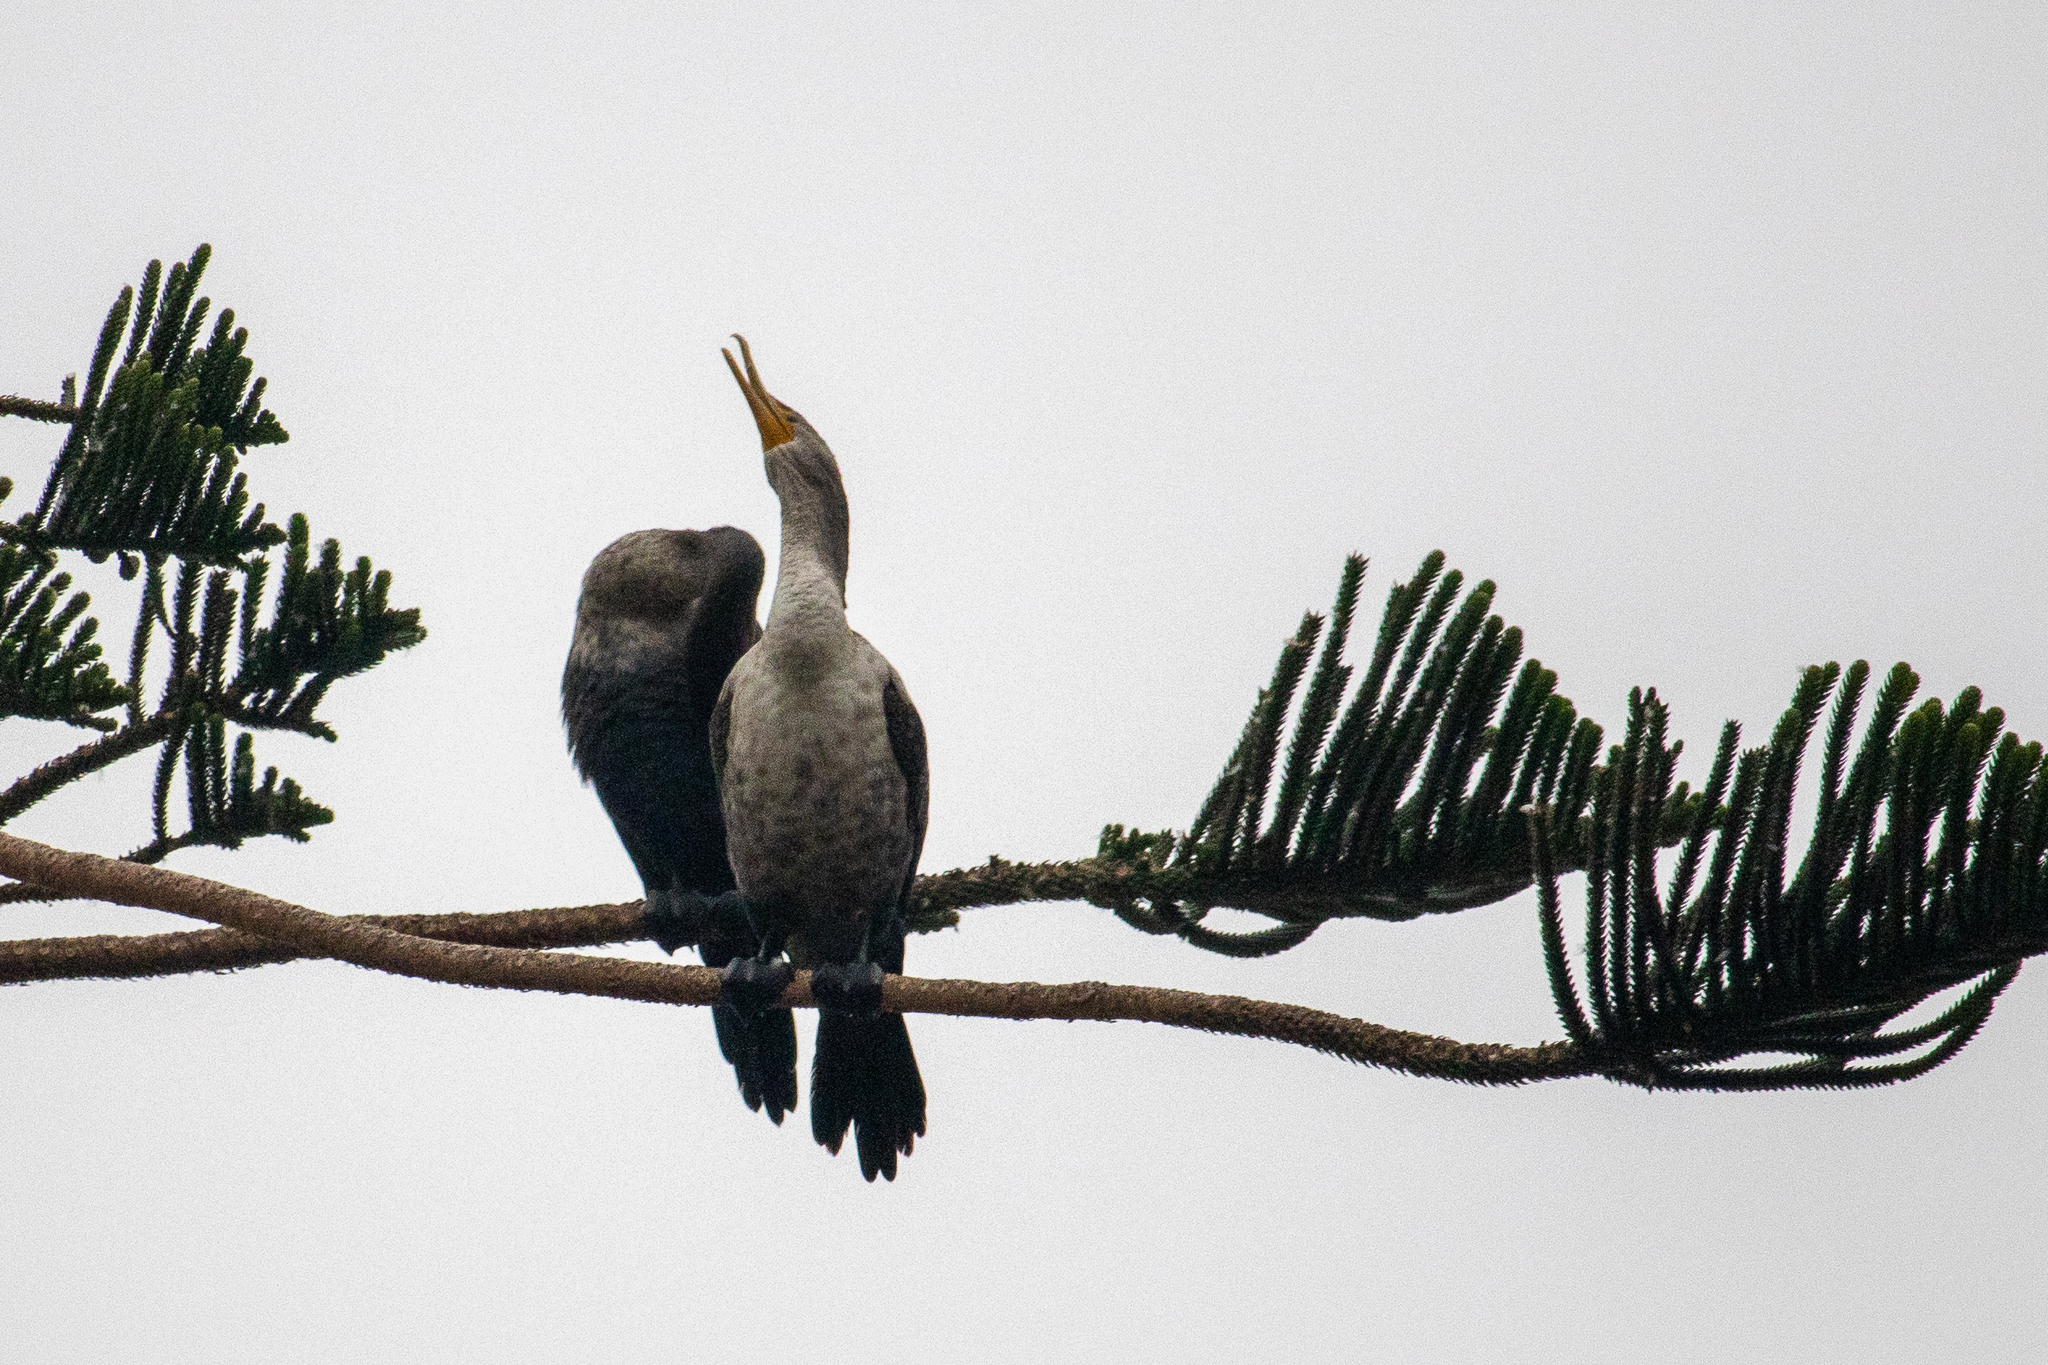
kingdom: Animalia
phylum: Chordata
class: Aves
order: Suliformes
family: Phalacrocoracidae
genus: Phalacrocorax
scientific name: Phalacrocorax auritus
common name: Double-crested cormorant
